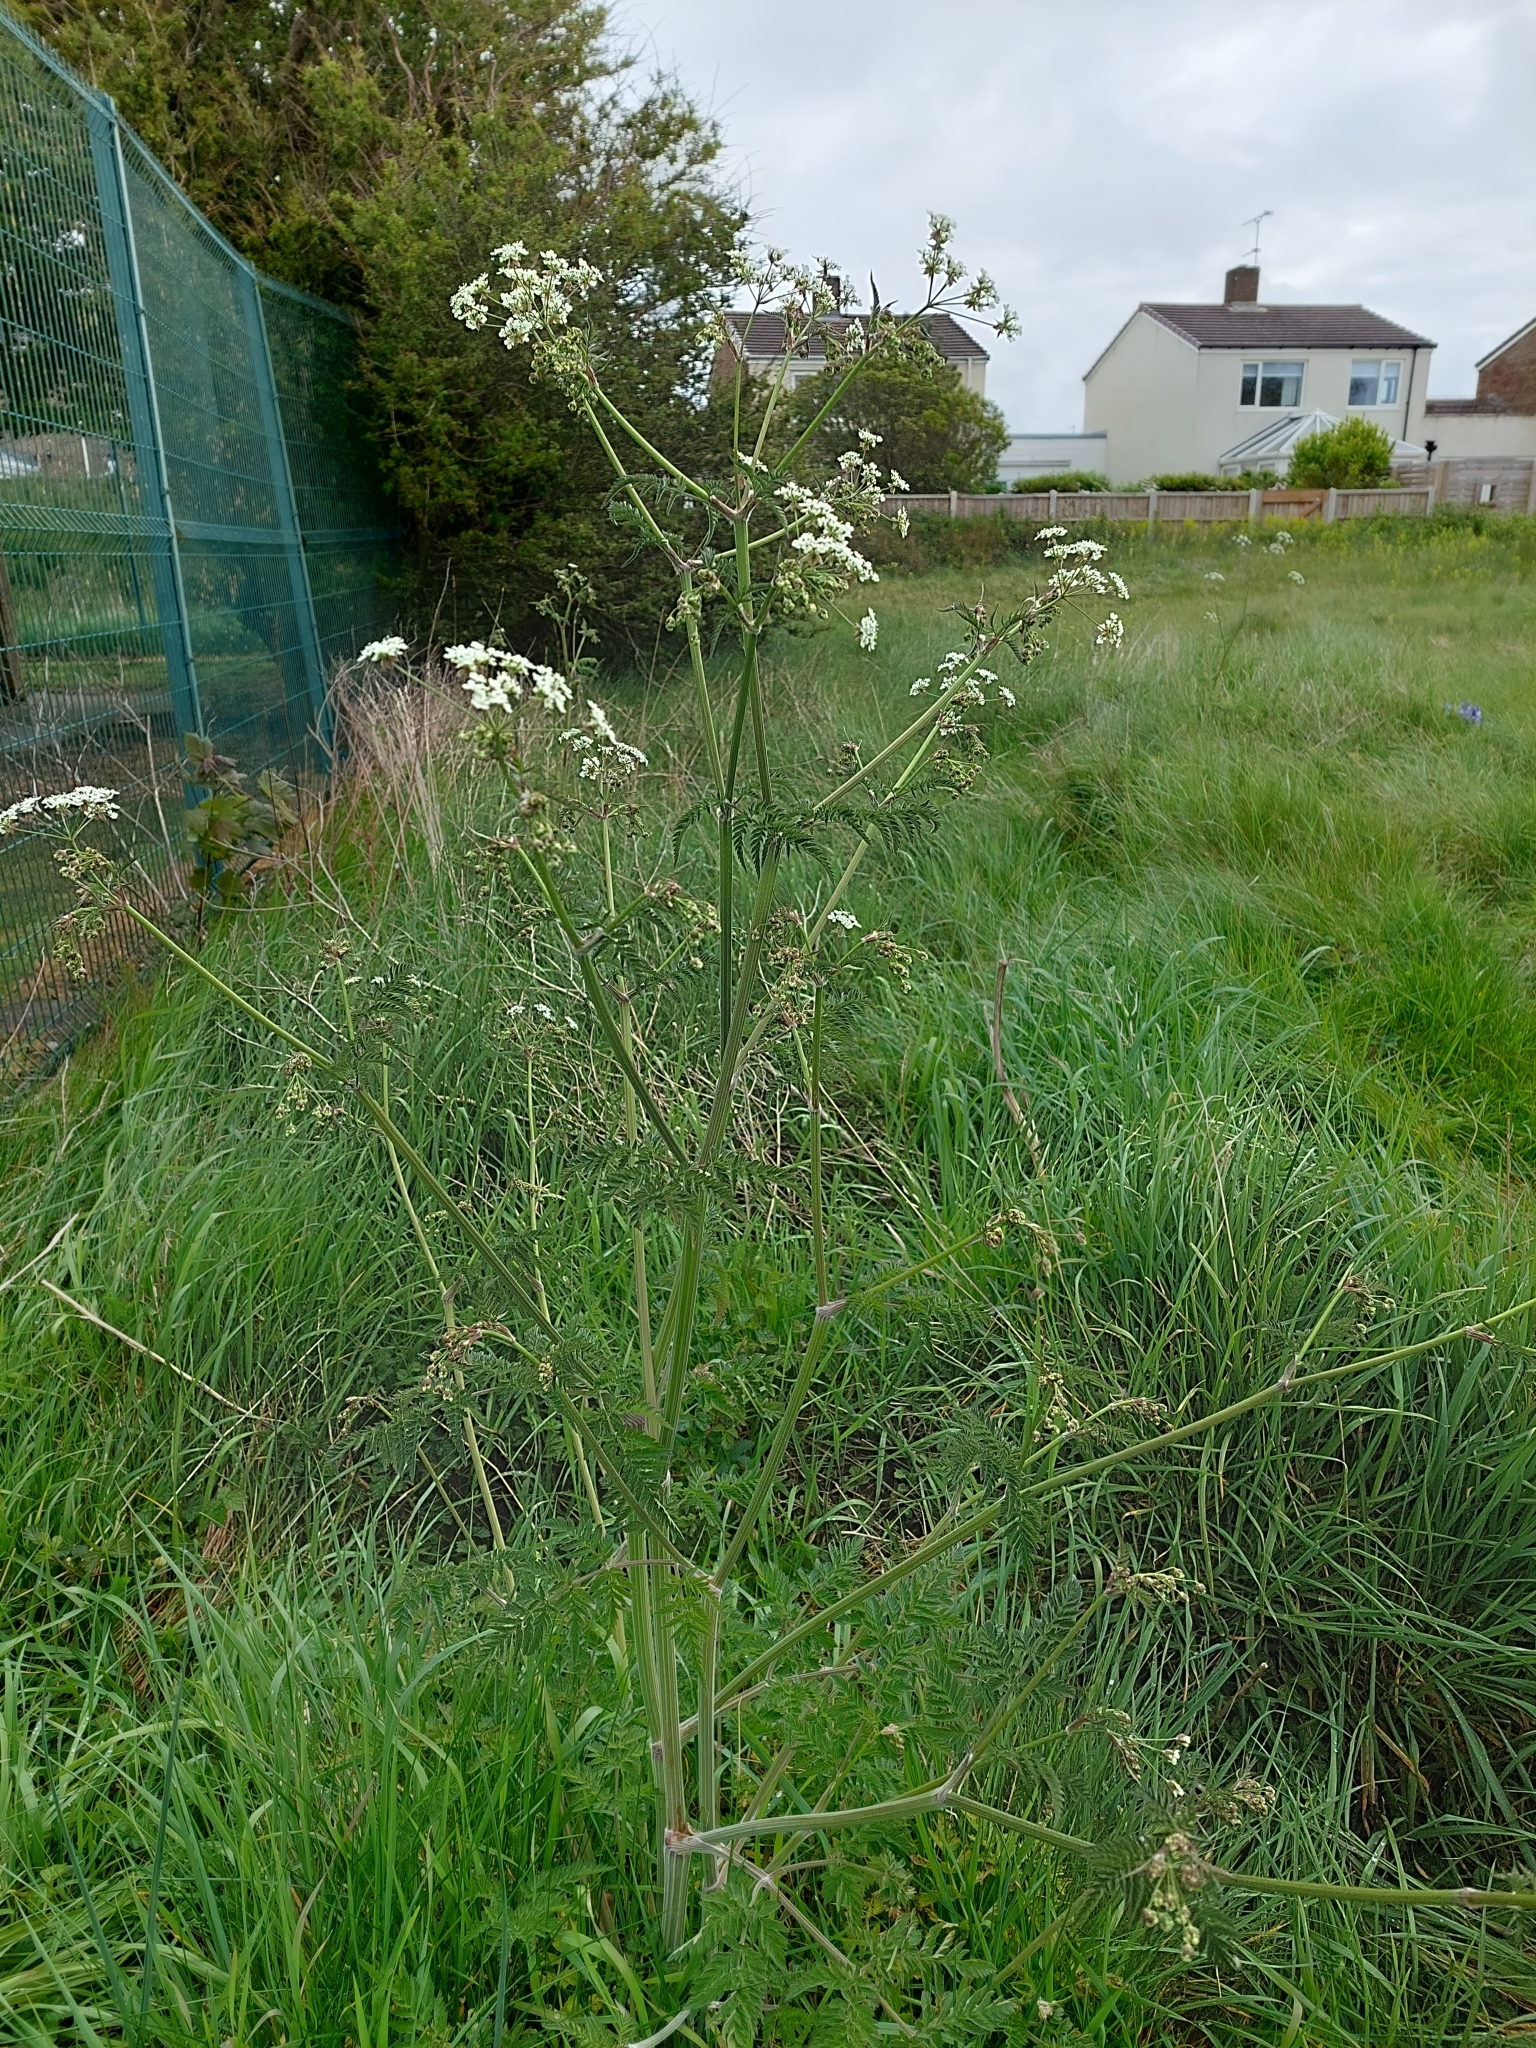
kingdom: Plantae
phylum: Tracheophyta
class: Magnoliopsida
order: Apiales
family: Apiaceae
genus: Anthriscus
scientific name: Anthriscus sylvestris
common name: Cow parsley
